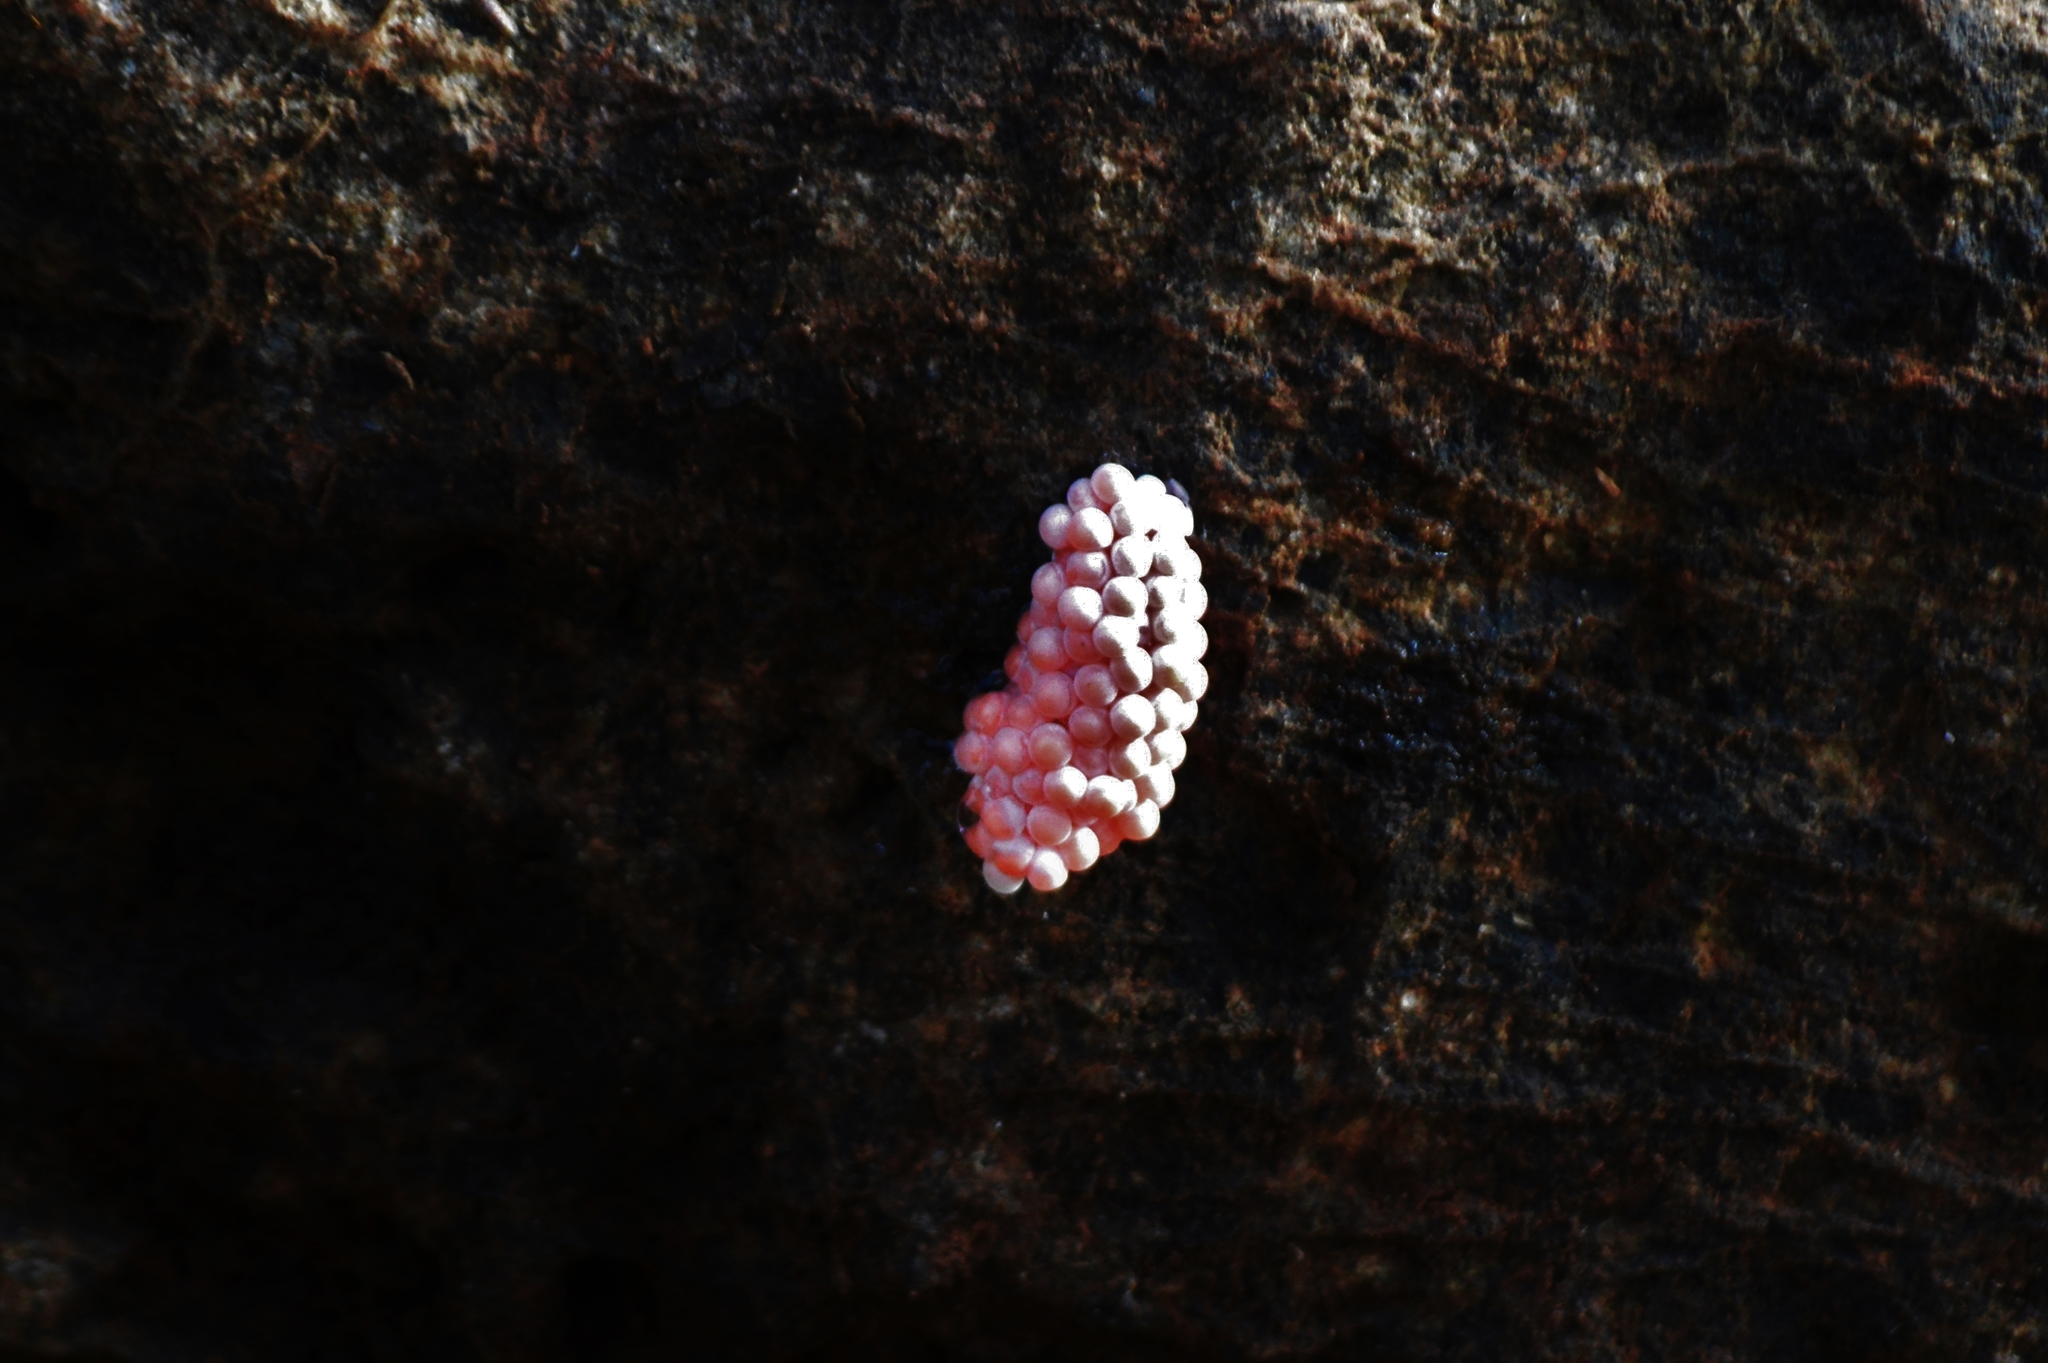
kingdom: Animalia
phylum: Mollusca
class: Gastropoda
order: Architaenioglossa
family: Ampullariidae
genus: Pomacea
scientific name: Pomacea
